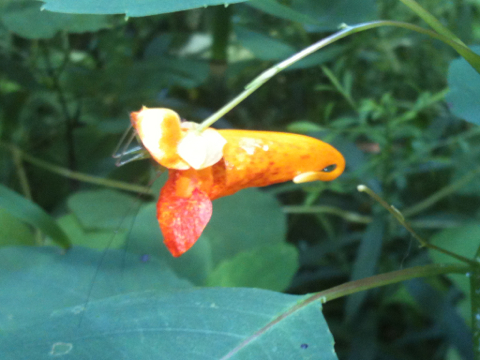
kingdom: Plantae
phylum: Tracheophyta
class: Magnoliopsida
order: Ericales
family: Balsaminaceae
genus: Impatiens
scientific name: Impatiens capensis
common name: Orange balsam
